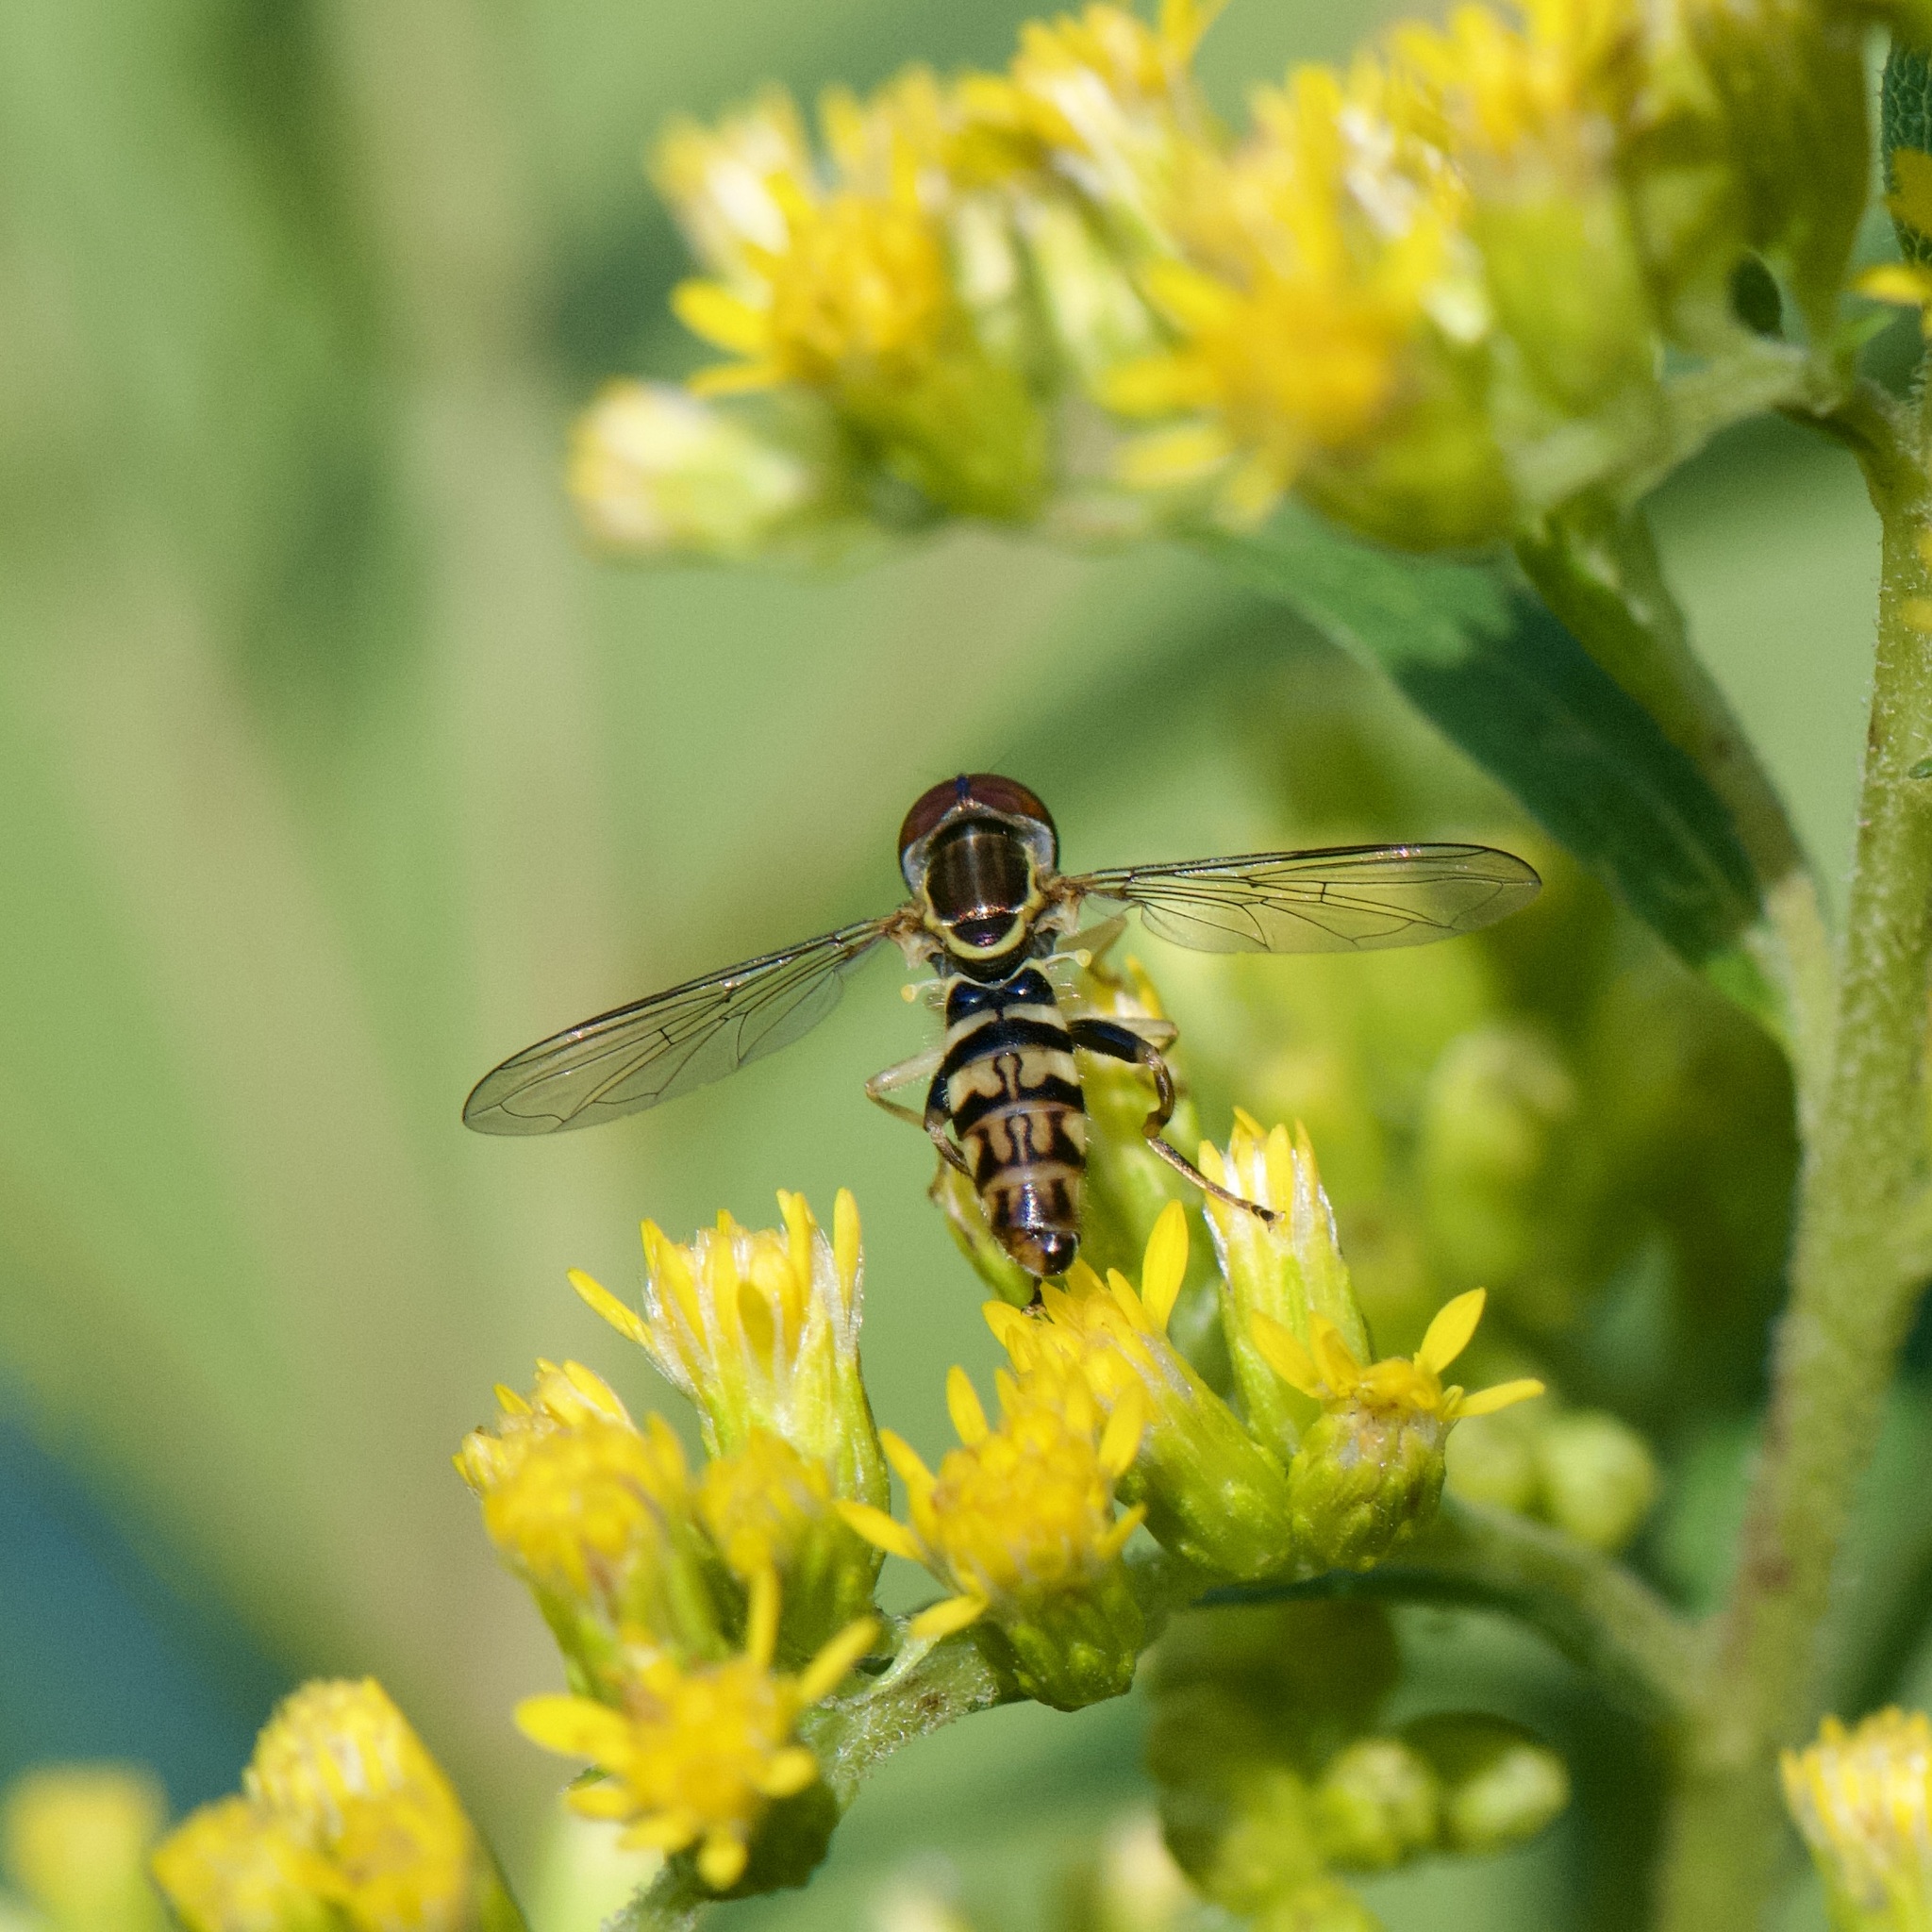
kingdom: Animalia
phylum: Arthropoda
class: Insecta
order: Diptera
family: Syrphidae
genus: Toxomerus
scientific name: Toxomerus geminatus
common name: Eastern calligrapher
